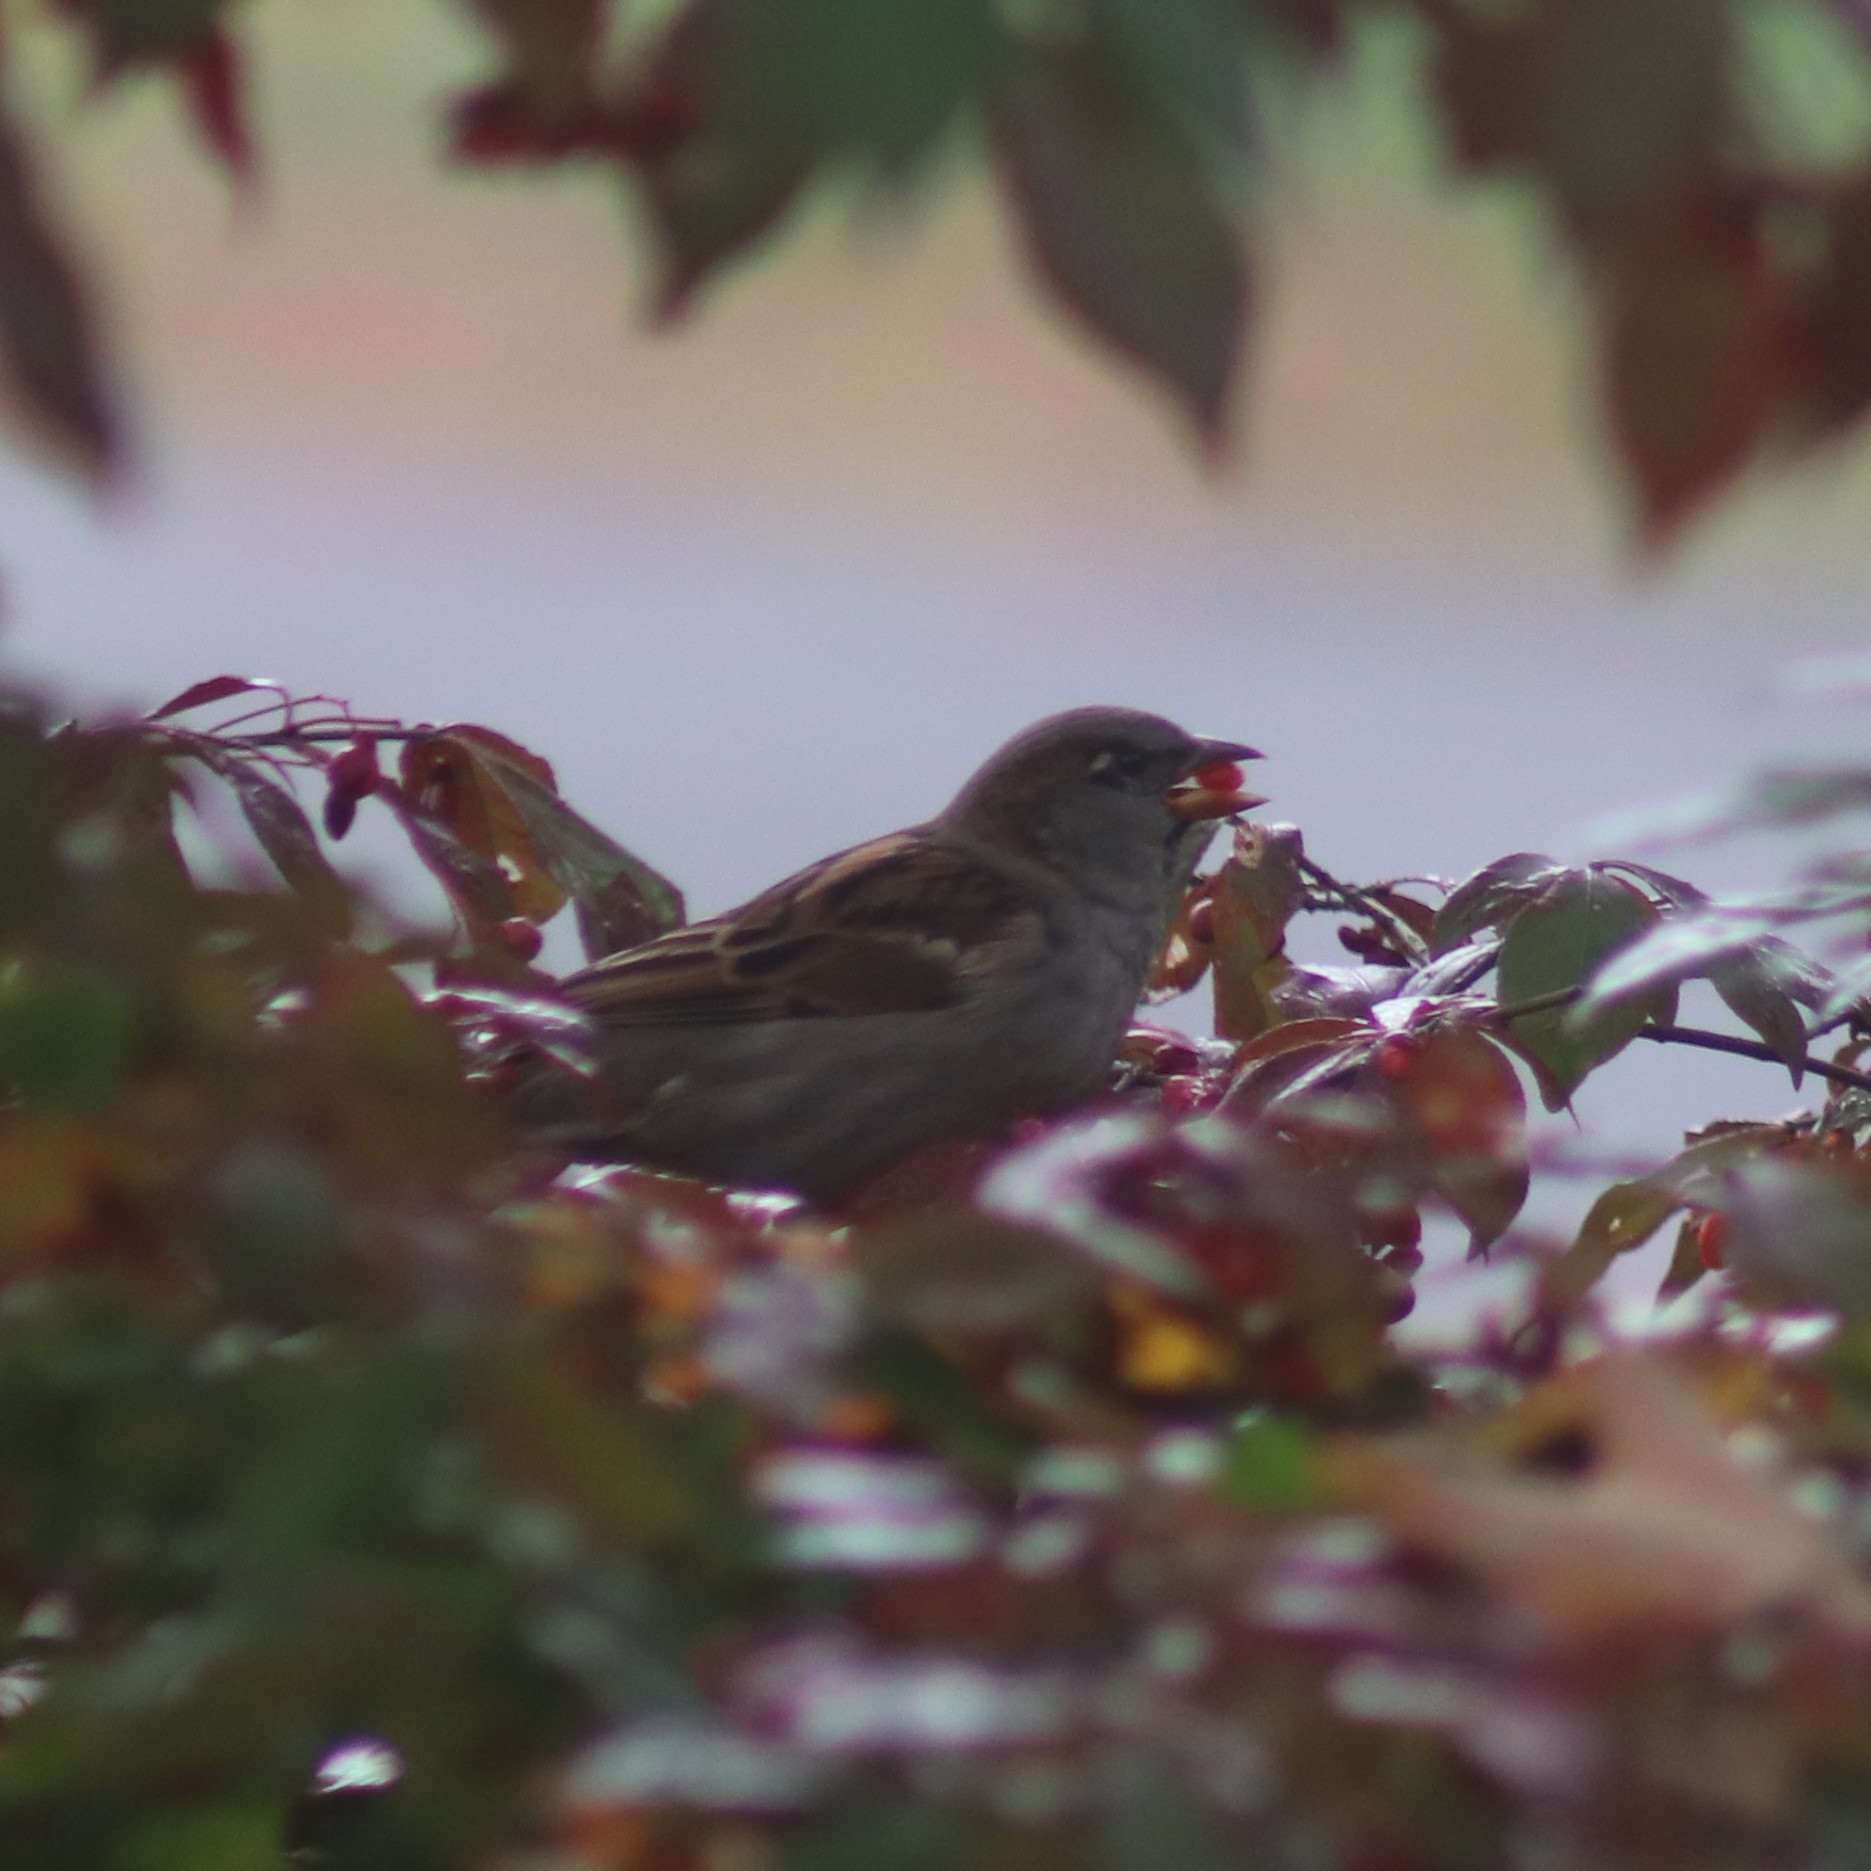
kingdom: Animalia
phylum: Chordata
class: Aves
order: Passeriformes
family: Passeridae
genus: Passer
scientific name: Passer domesticus
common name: House sparrow
